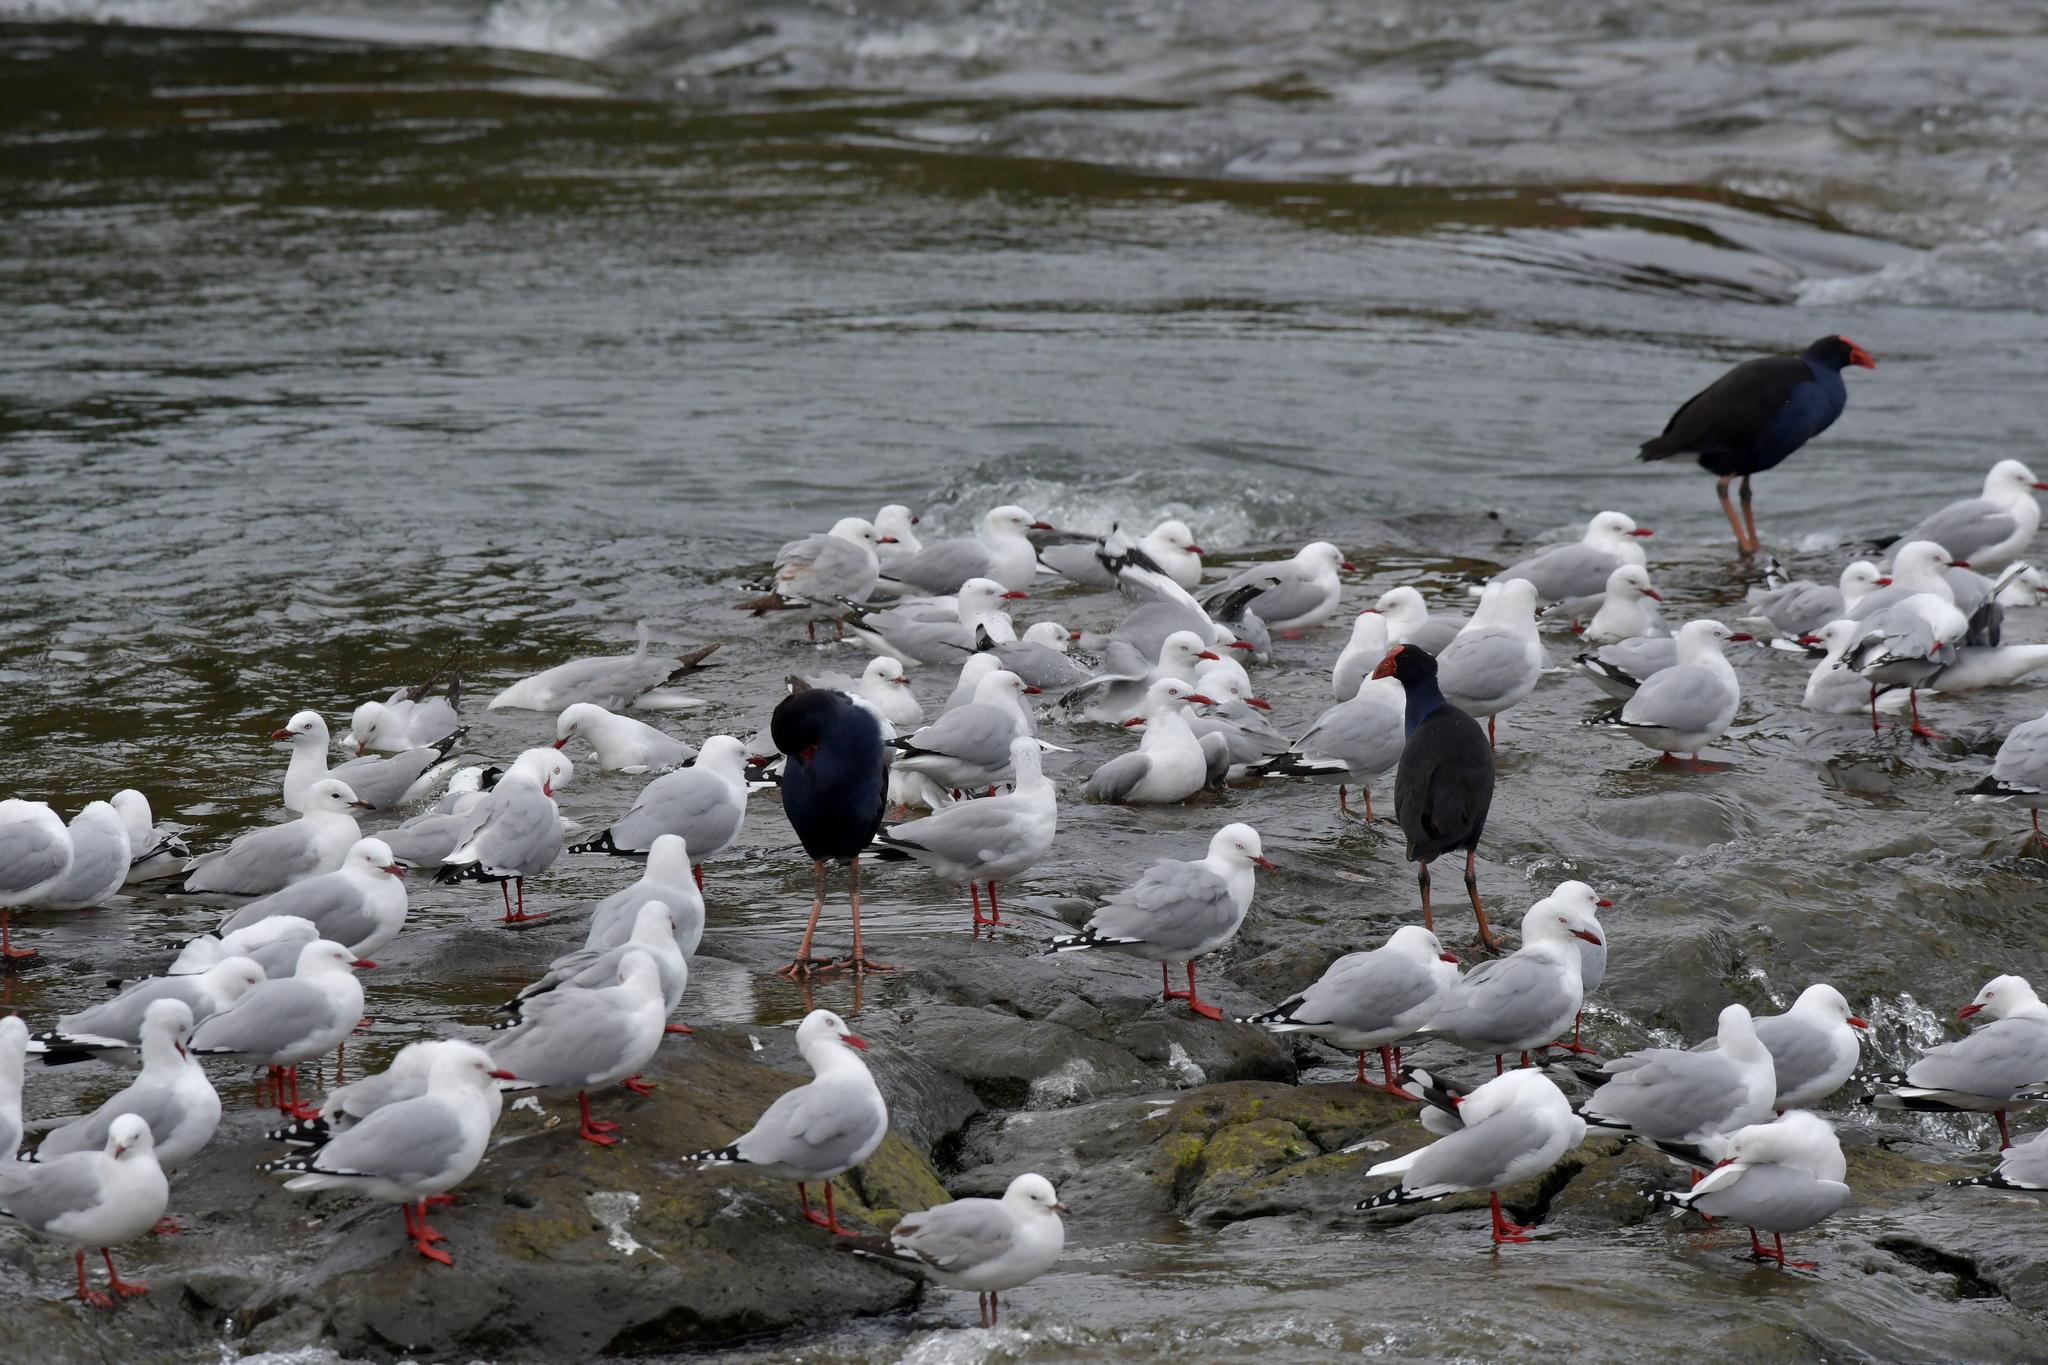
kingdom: Animalia
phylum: Chordata
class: Aves
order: Gruiformes
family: Rallidae
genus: Porphyrio
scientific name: Porphyrio melanotus
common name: Australasian swamphen
